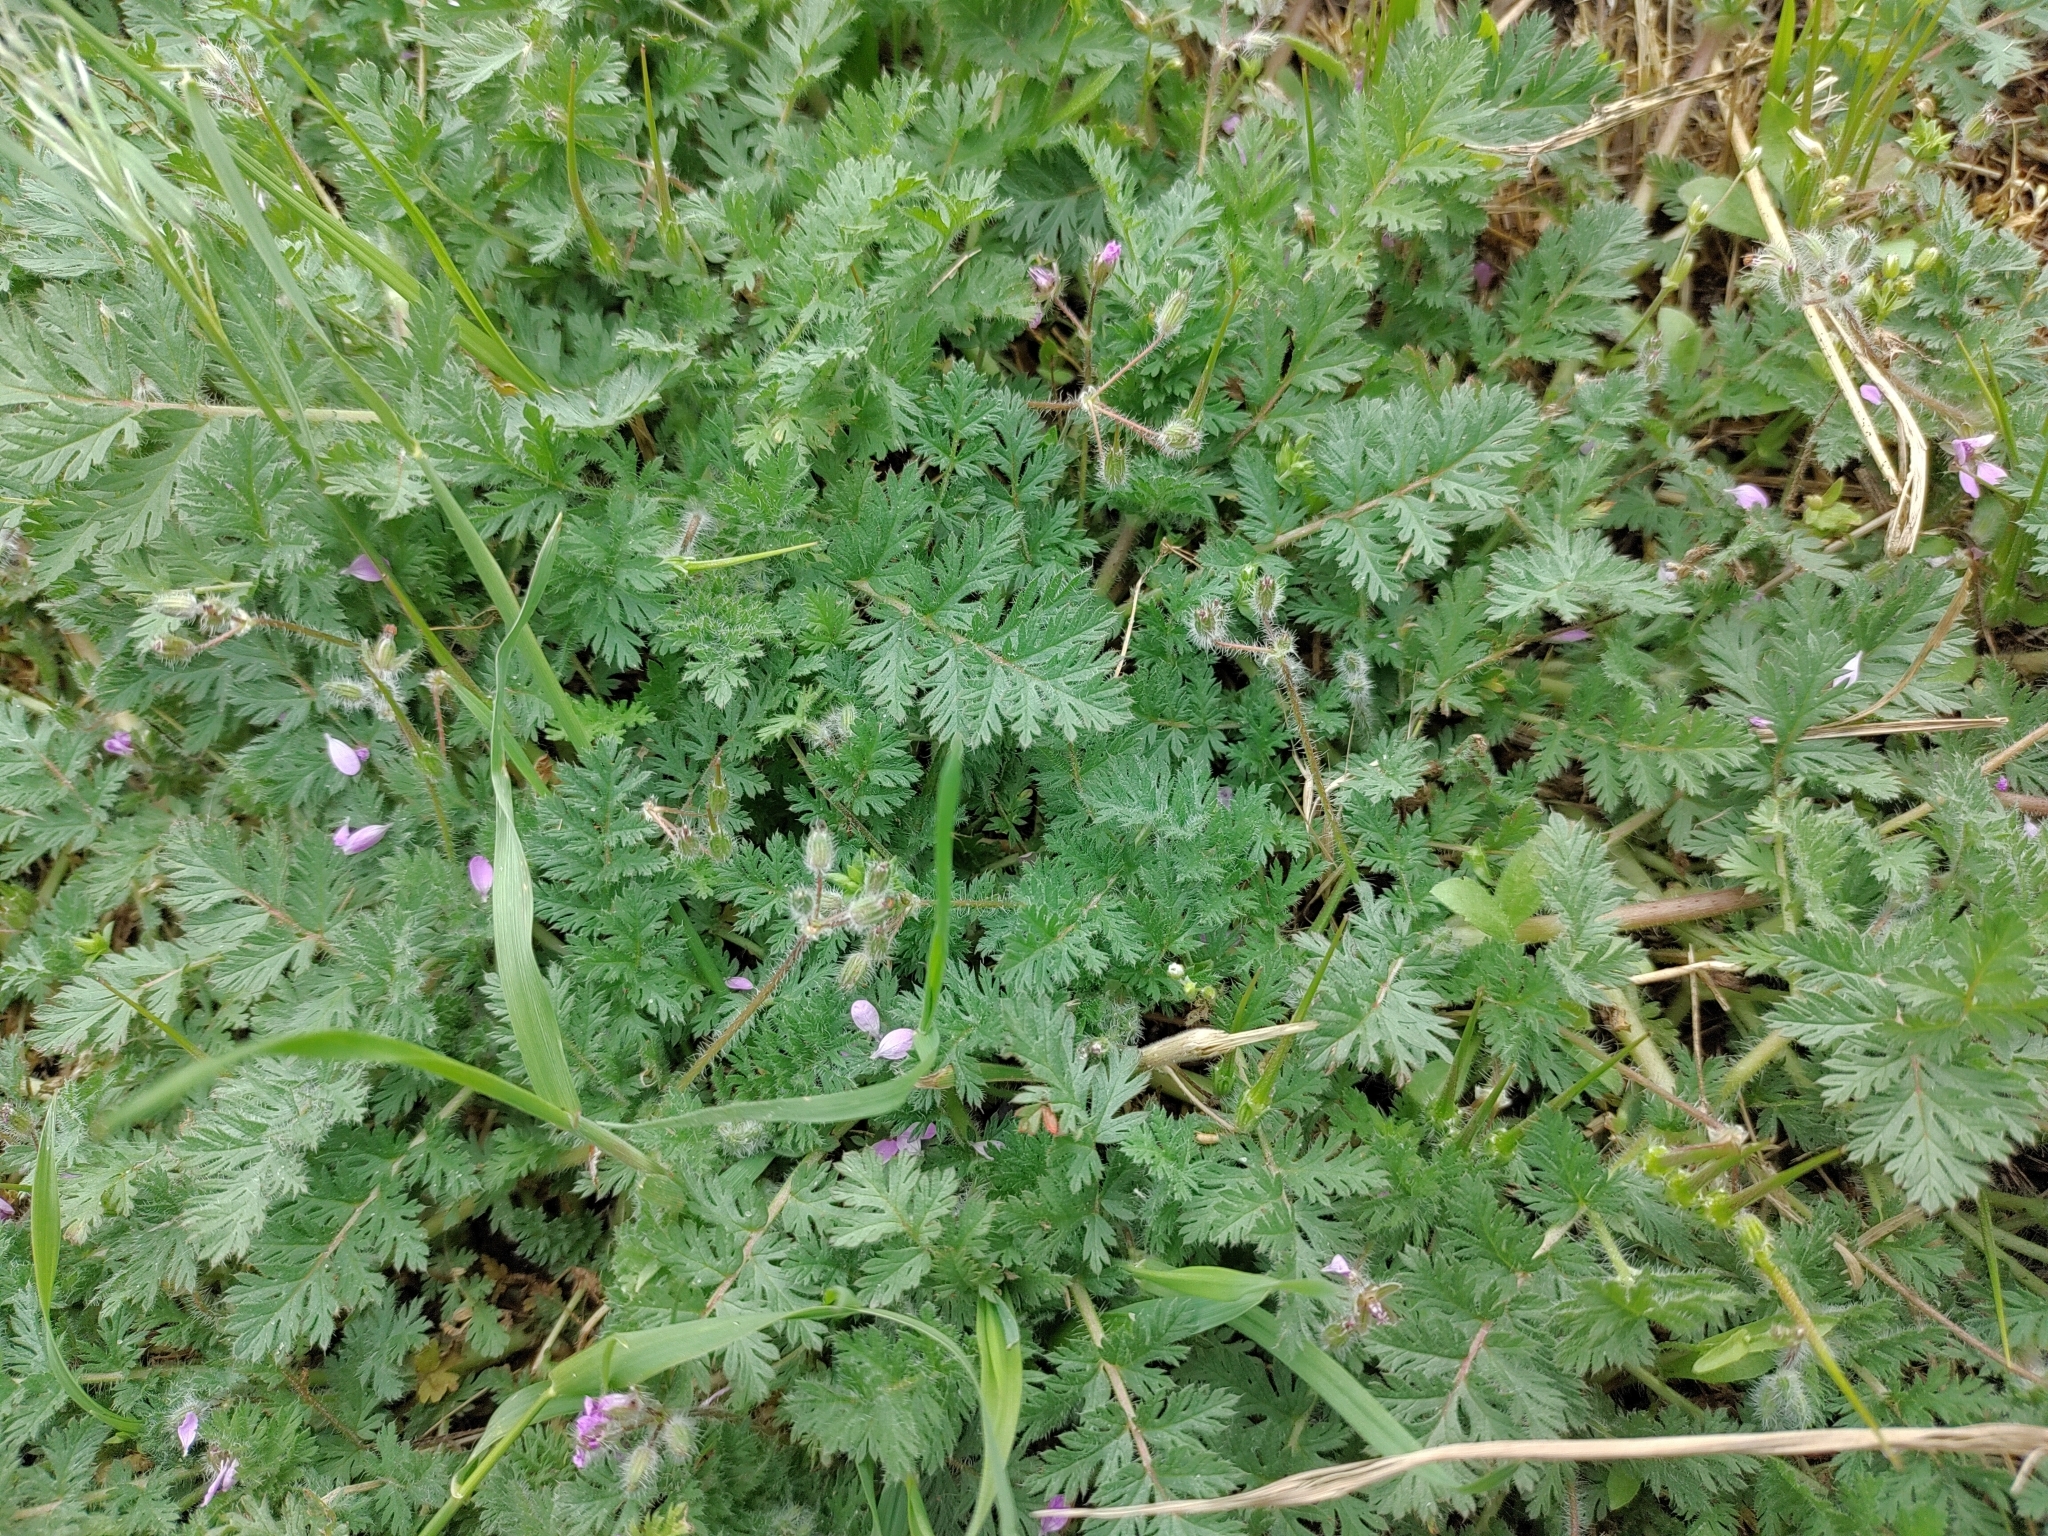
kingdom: Plantae
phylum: Tracheophyta
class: Magnoliopsida
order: Geraniales
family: Geraniaceae
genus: Erodium
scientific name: Erodium cicutarium
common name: Common stork's-bill
